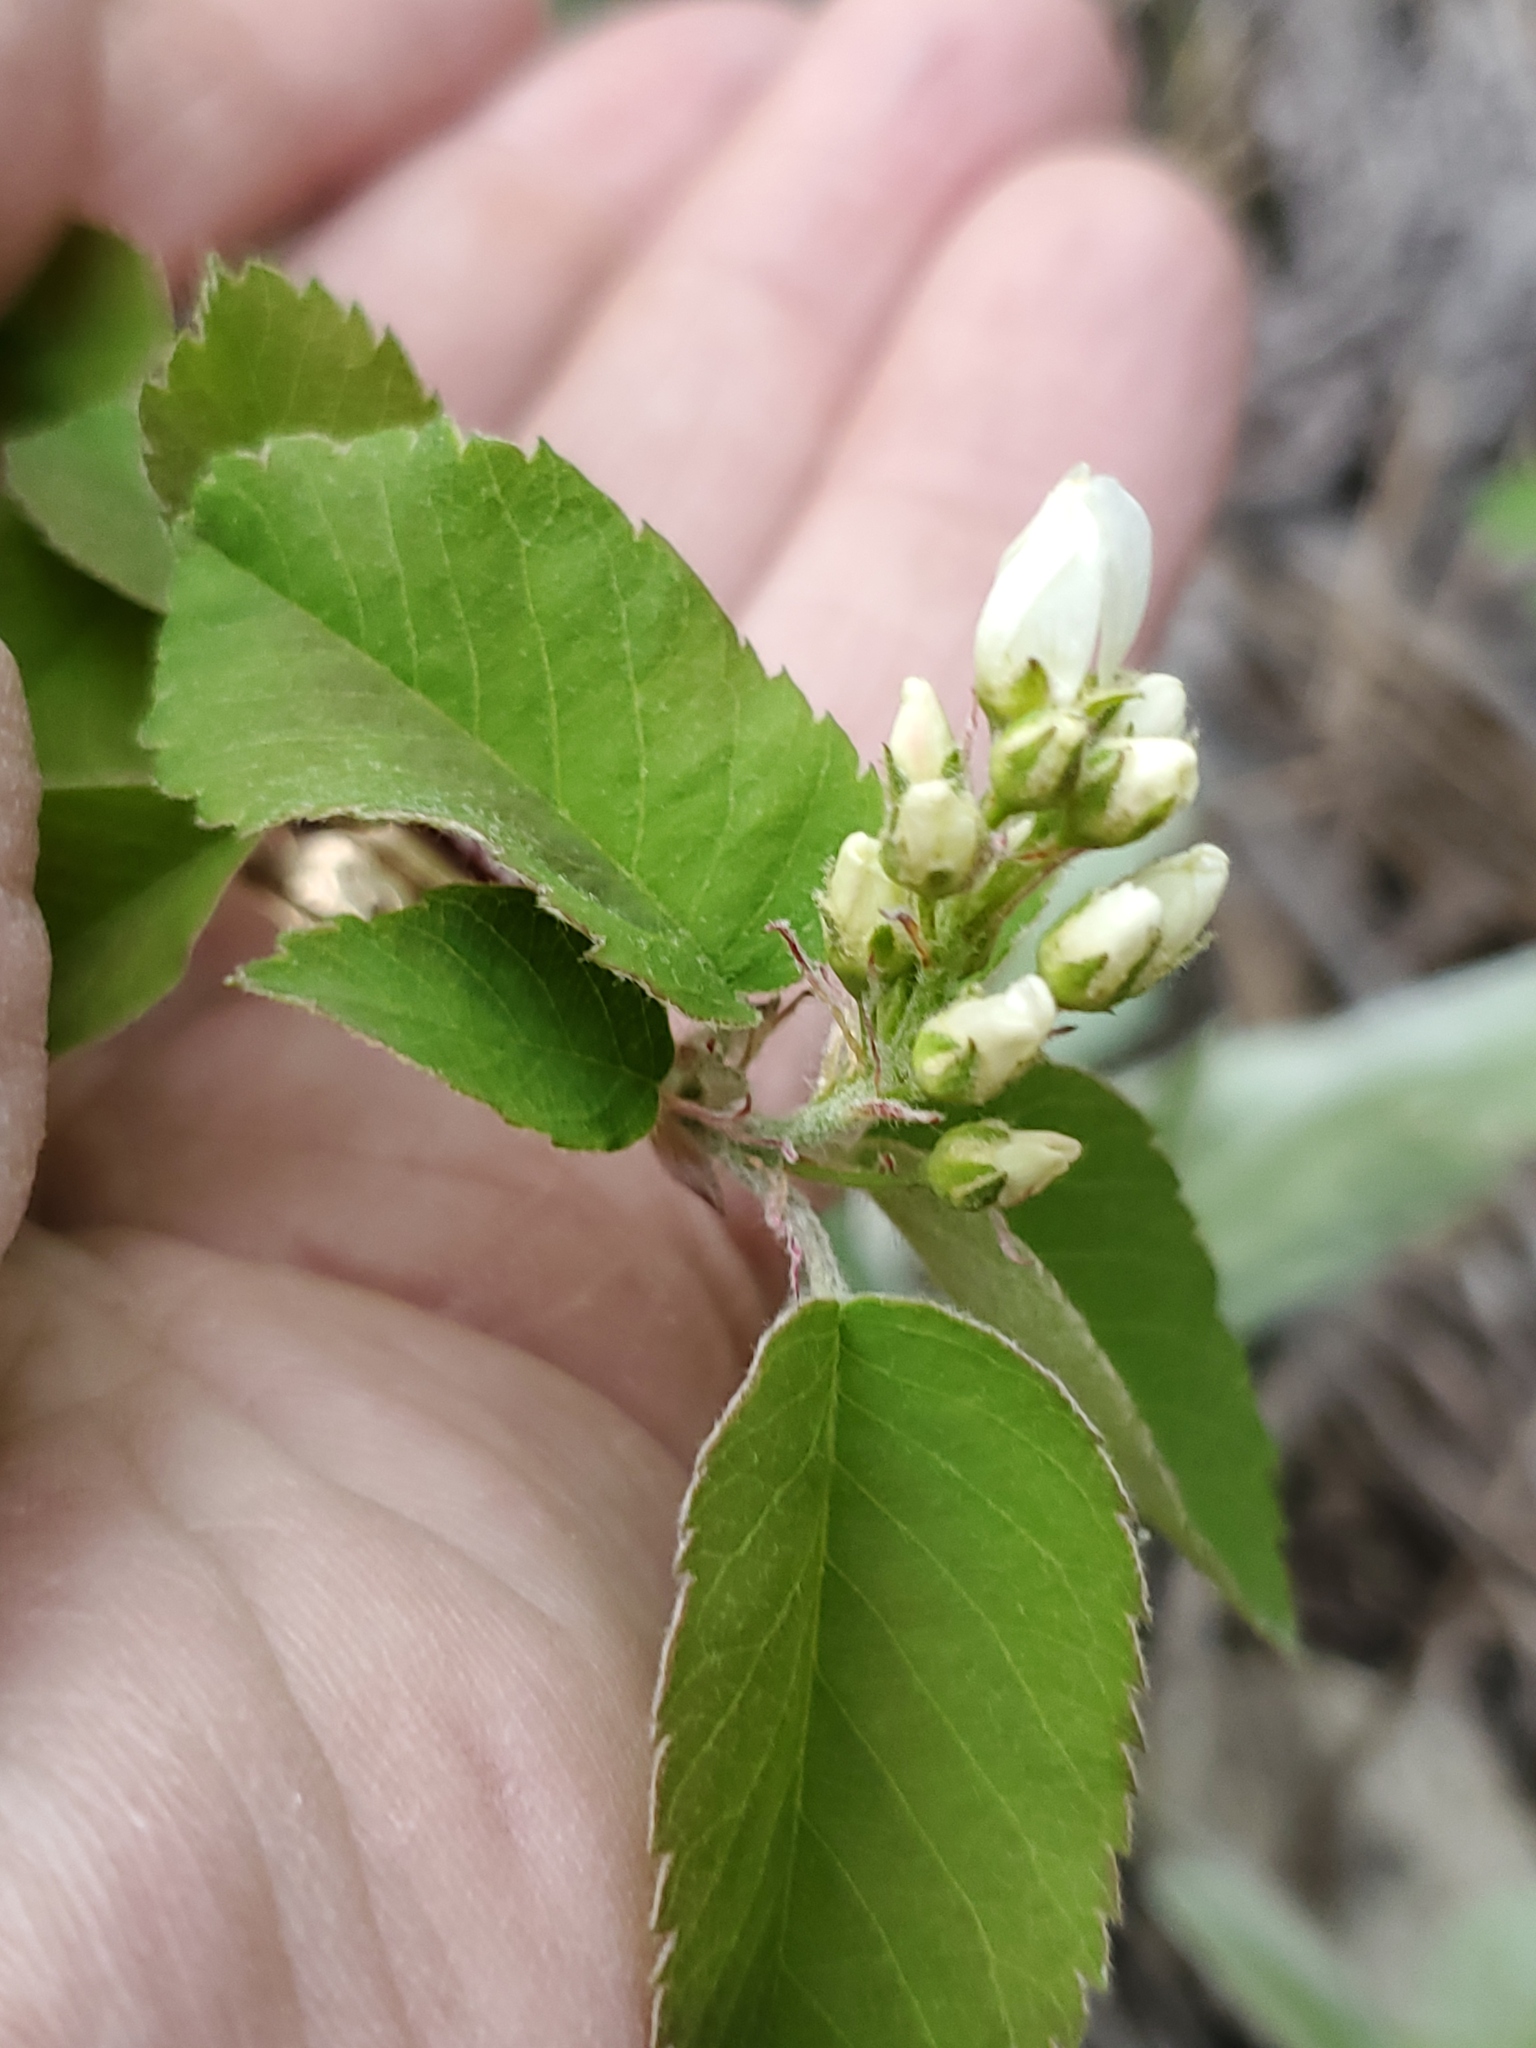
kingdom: Plantae
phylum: Tracheophyta
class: Magnoliopsida
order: Rosales
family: Rosaceae
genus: Amelanchier
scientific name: Amelanchier alnifolia
